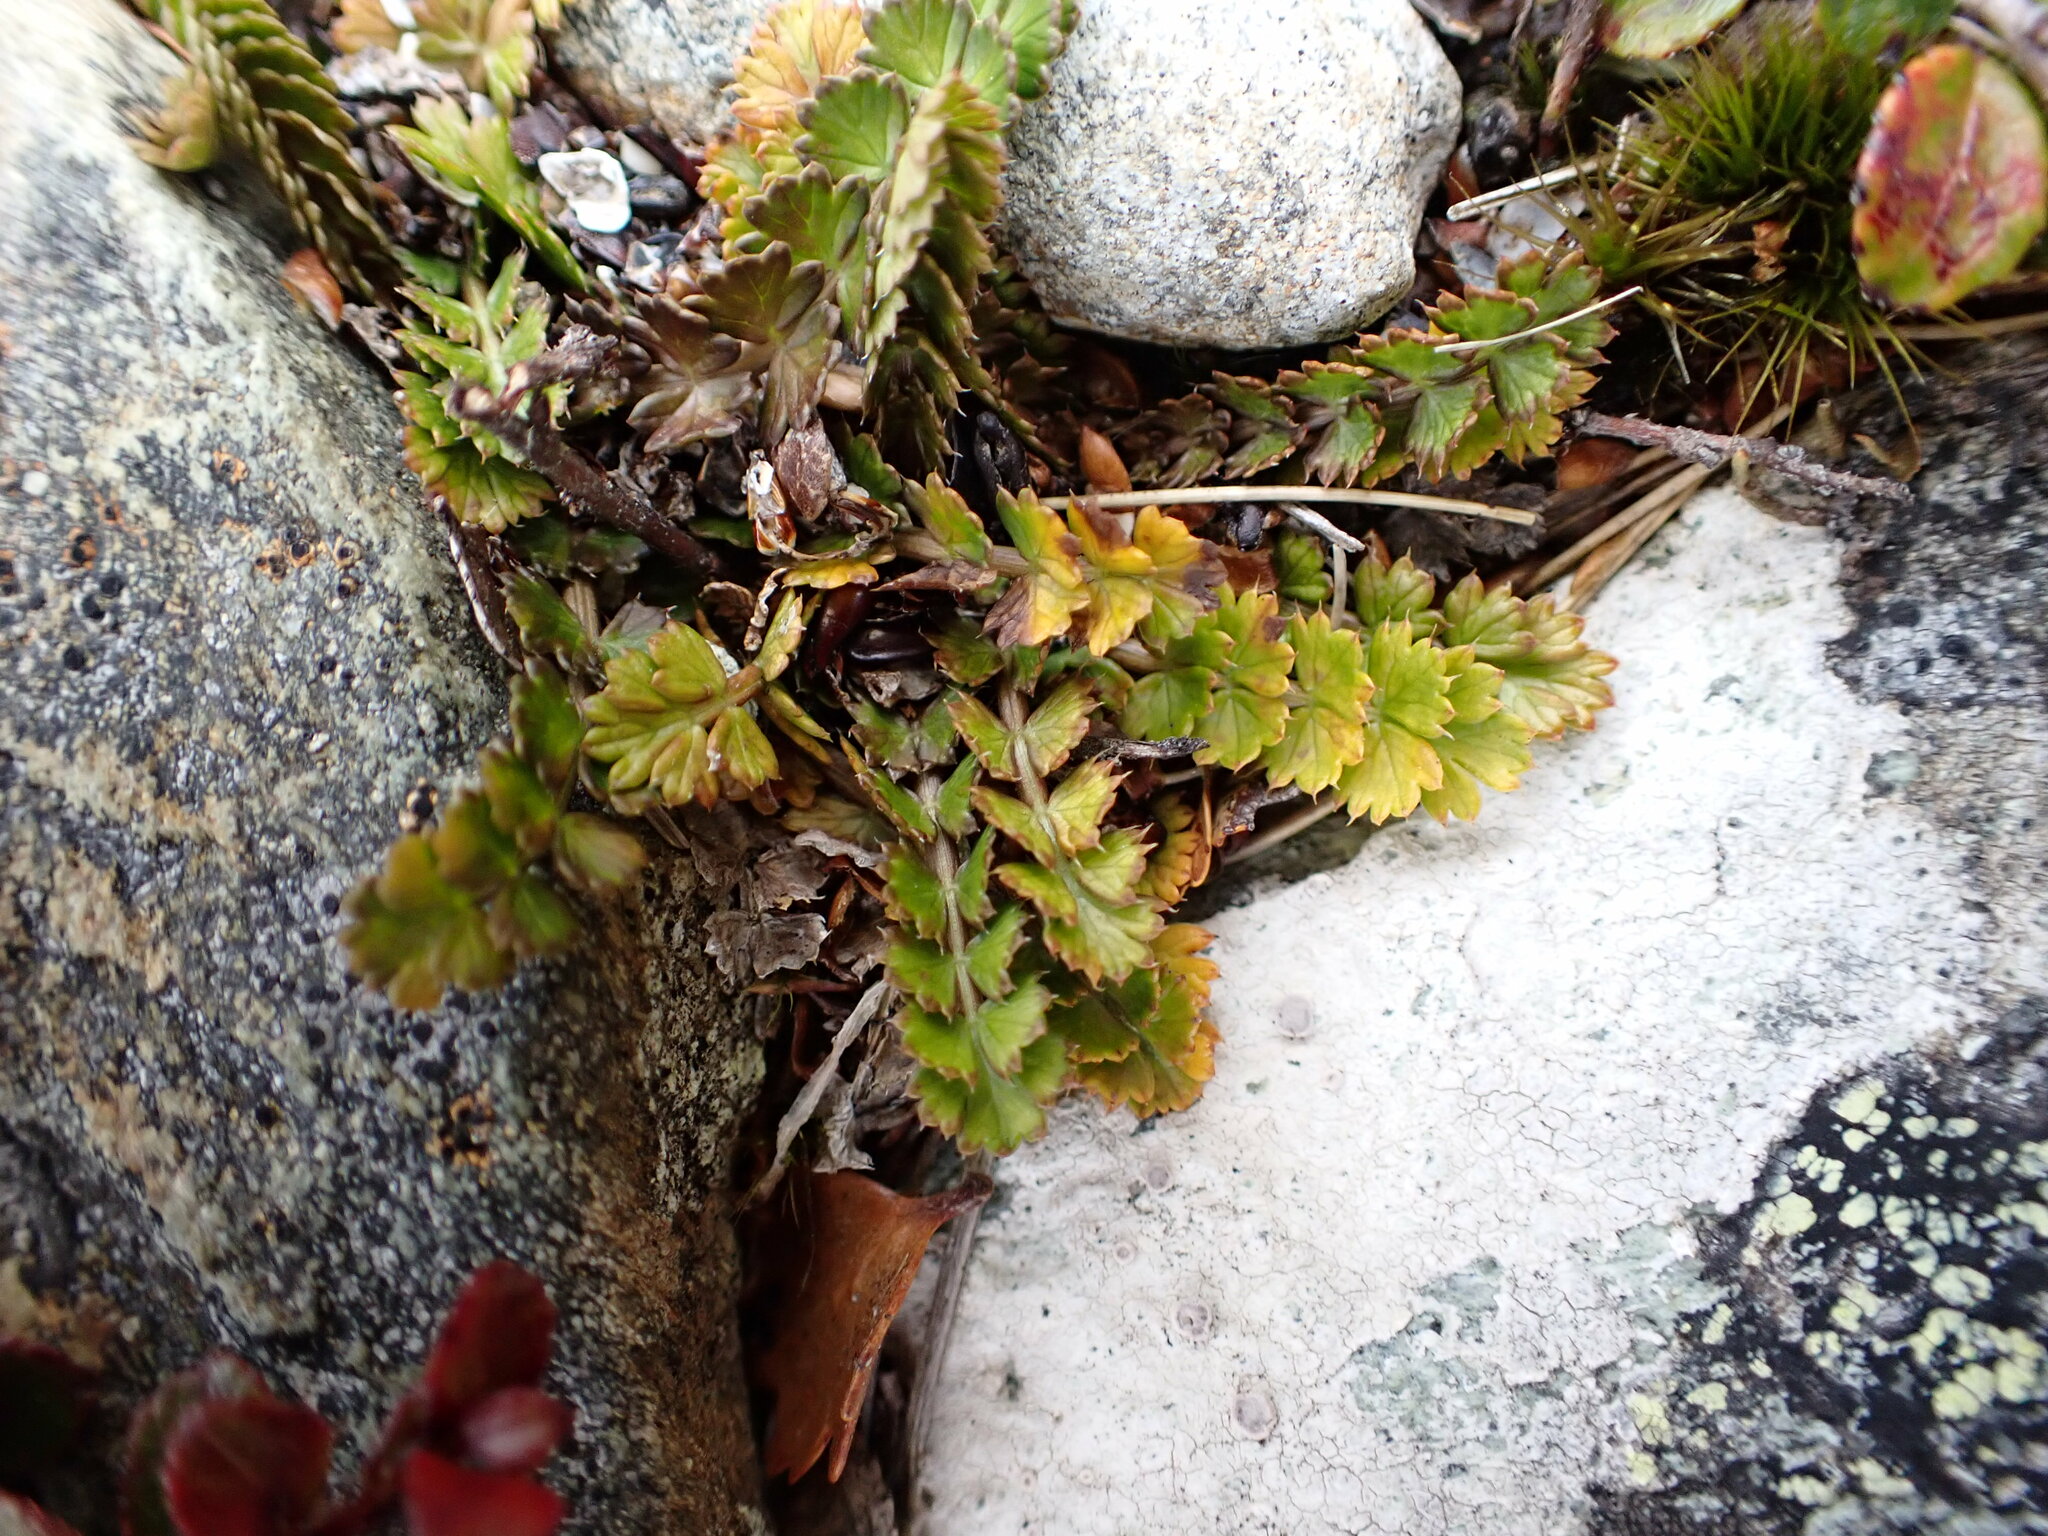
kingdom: Plantae
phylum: Tracheophyta
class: Magnoliopsida
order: Apiales
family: Apiaceae
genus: Anisotome
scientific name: Anisotome aromatica
